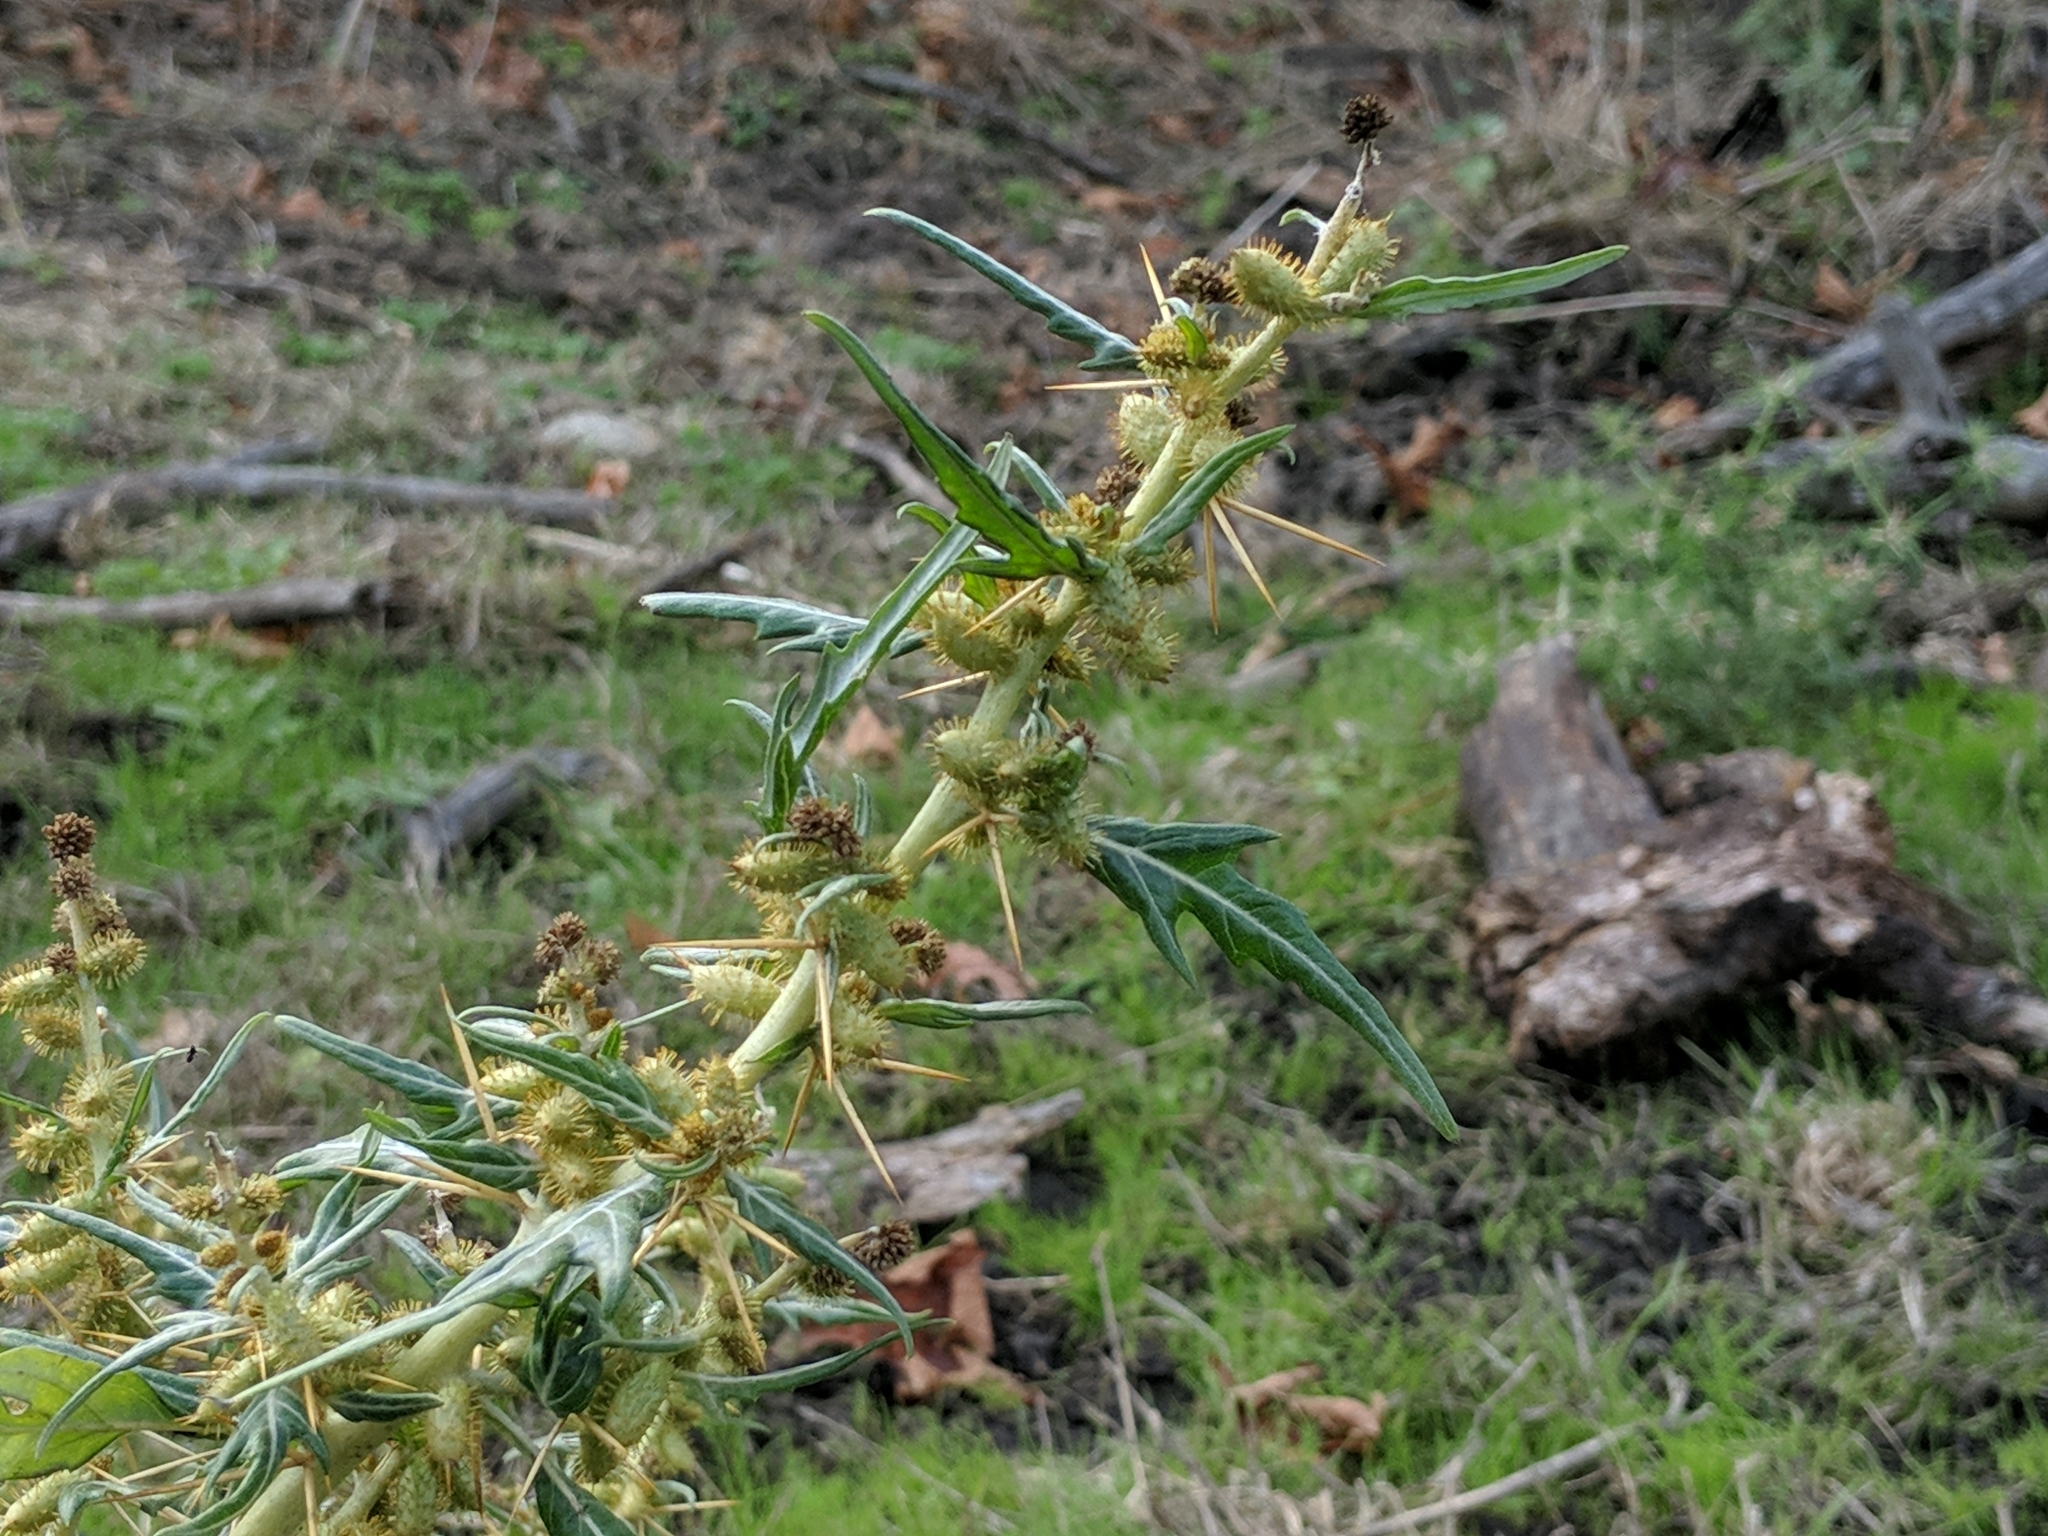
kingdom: Plantae
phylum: Tracheophyta
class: Magnoliopsida
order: Asterales
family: Asteraceae
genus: Xanthium
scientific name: Xanthium spinosum
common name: Spiny cocklebur
